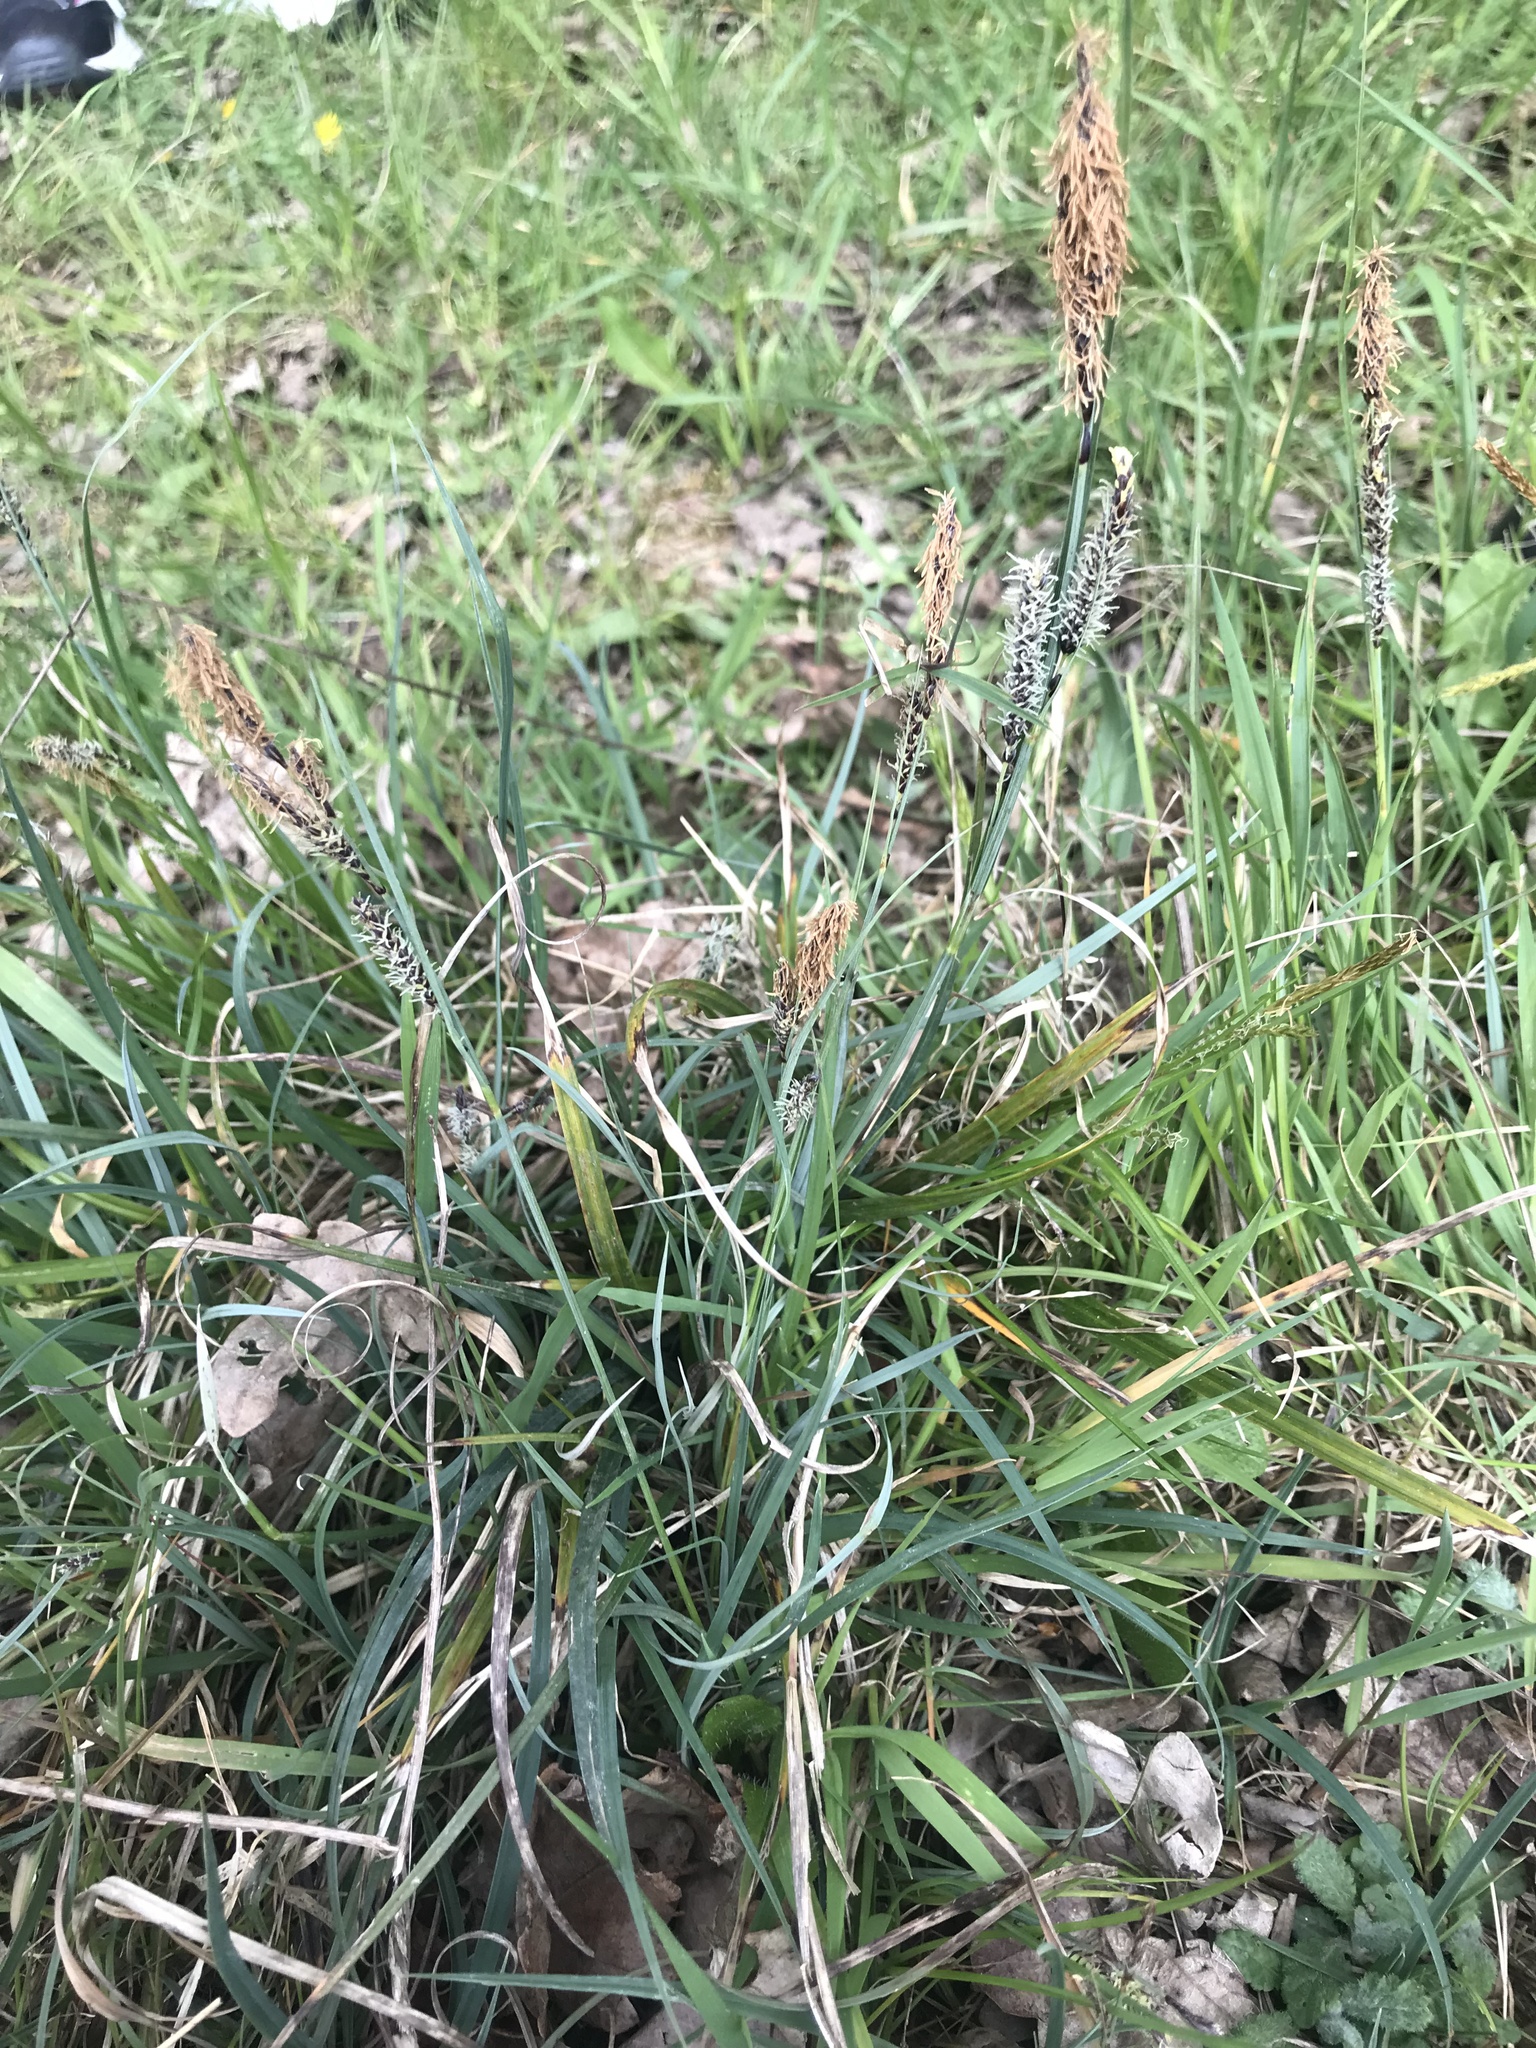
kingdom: Plantae
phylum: Tracheophyta
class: Liliopsida
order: Poales
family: Cyperaceae
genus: Carex
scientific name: Carex flacca
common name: Glaucous sedge
